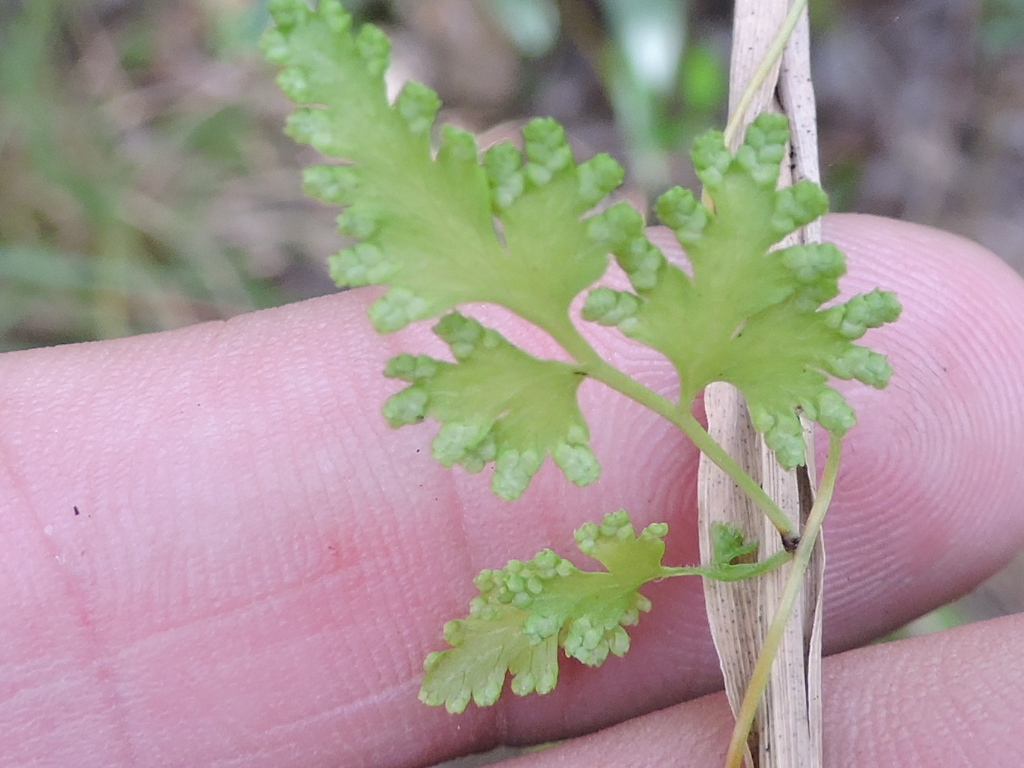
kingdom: Plantae
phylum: Tracheophyta
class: Polypodiopsida
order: Schizaeales
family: Lygodiaceae
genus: Lygodium
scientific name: Lygodium japonicum
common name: Japanese climbing fern
